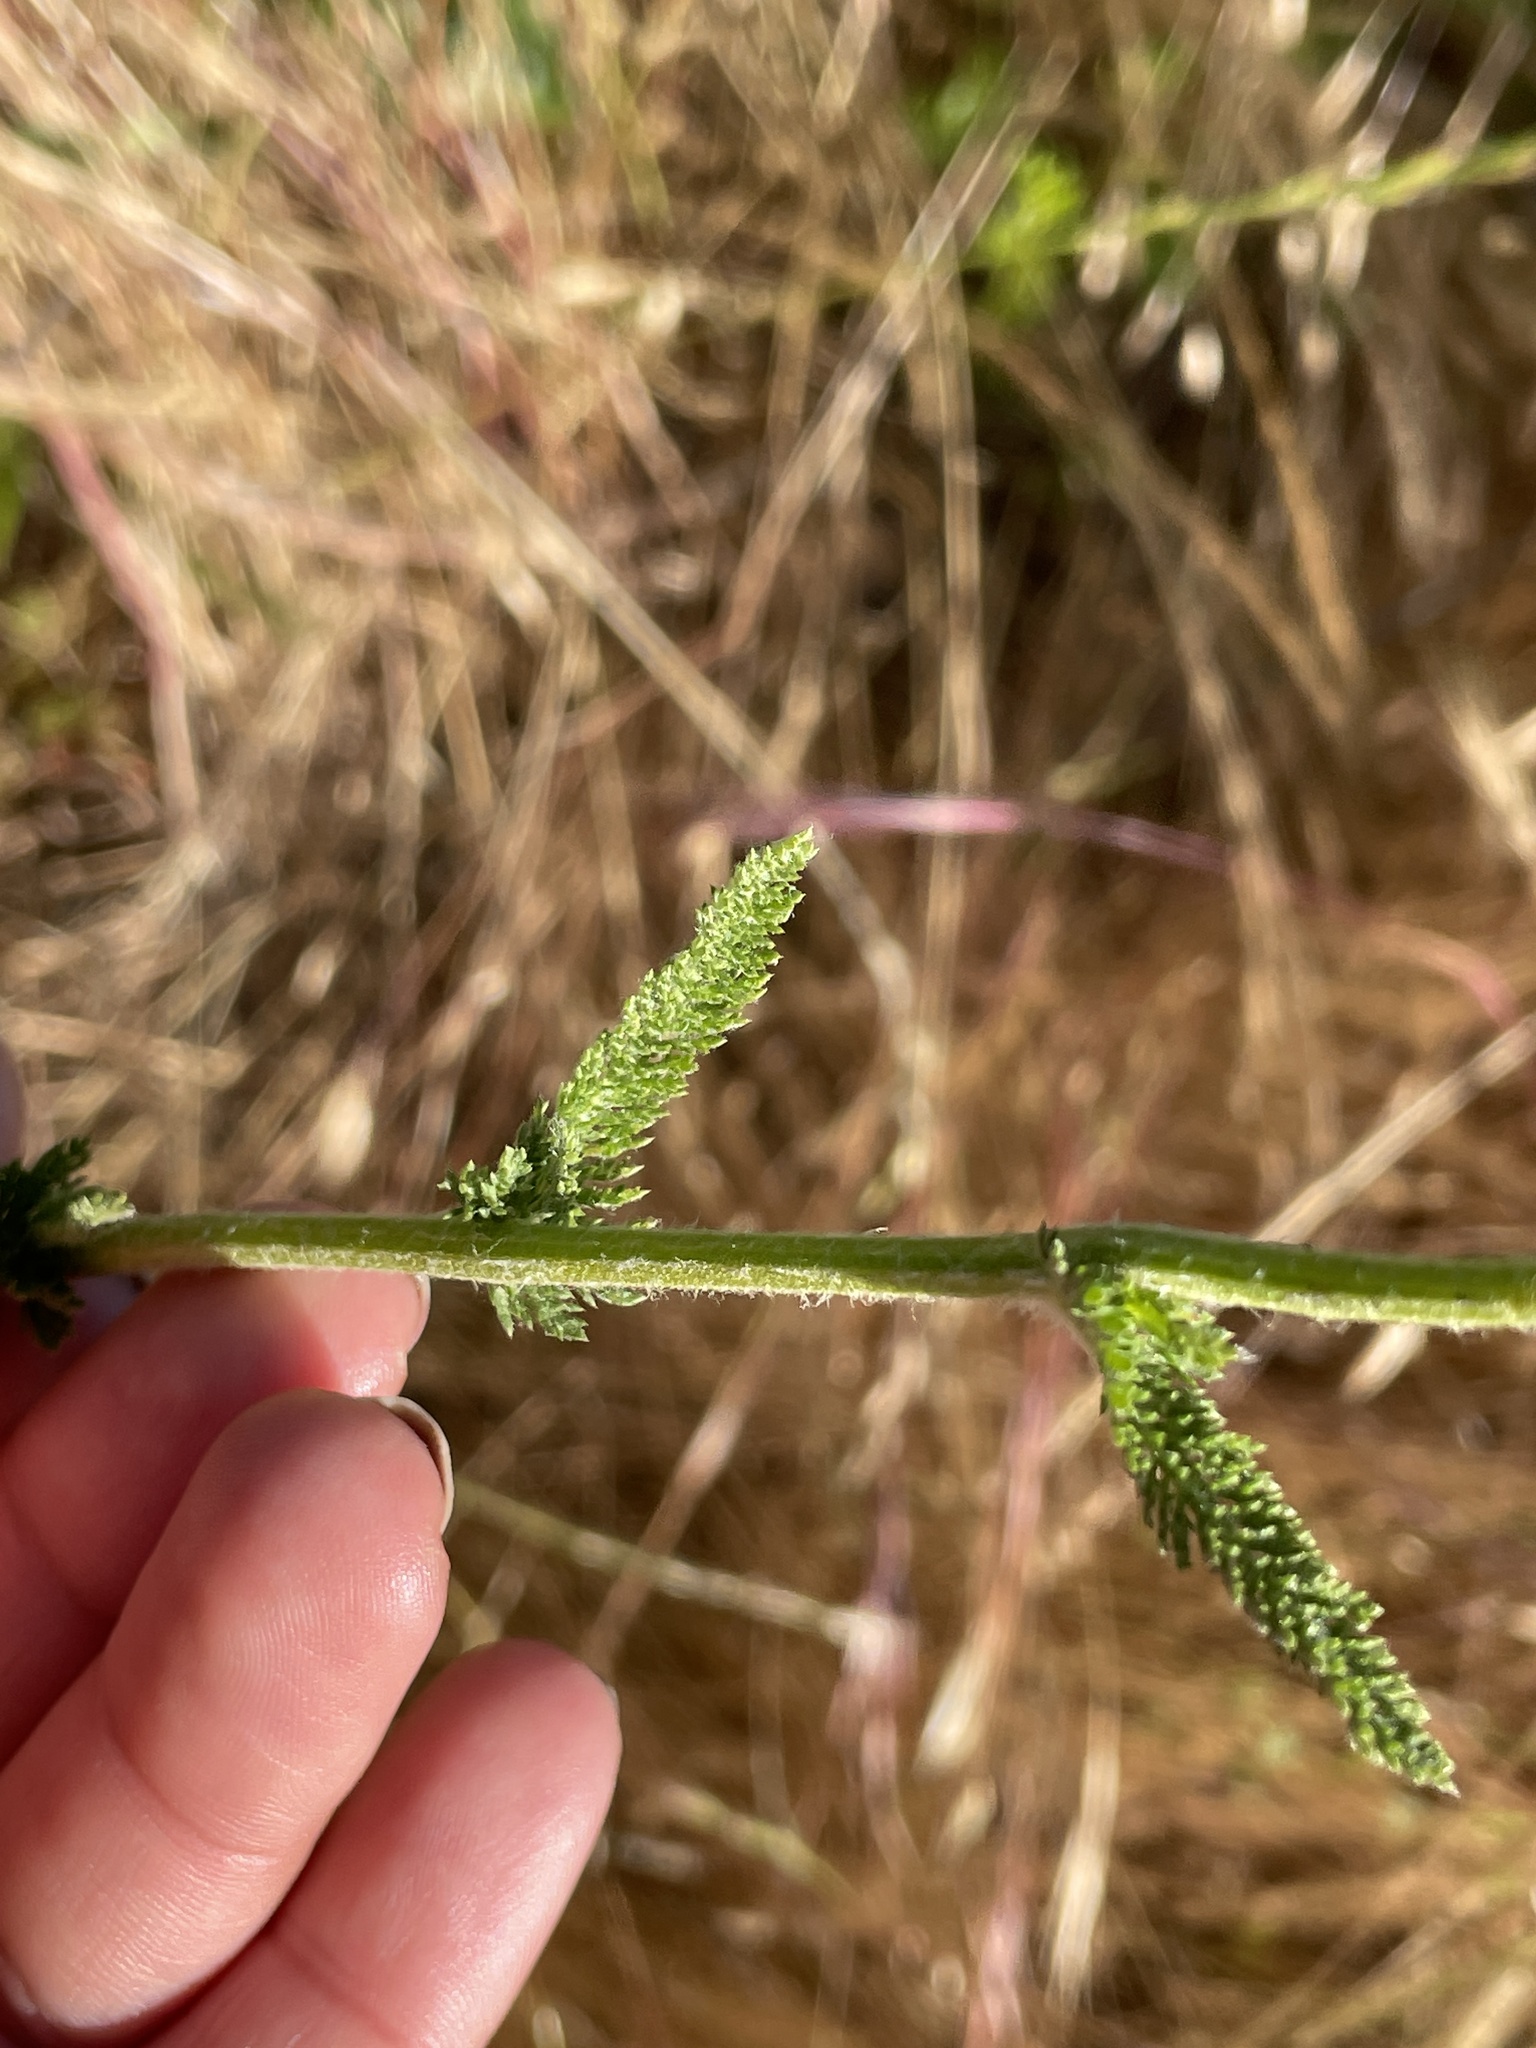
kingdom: Plantae
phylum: Tracheophyta
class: Magnoliopsida
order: Asterales
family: Asteraceae
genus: Achillea
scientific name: Achillea millefolium
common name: Yarrow
